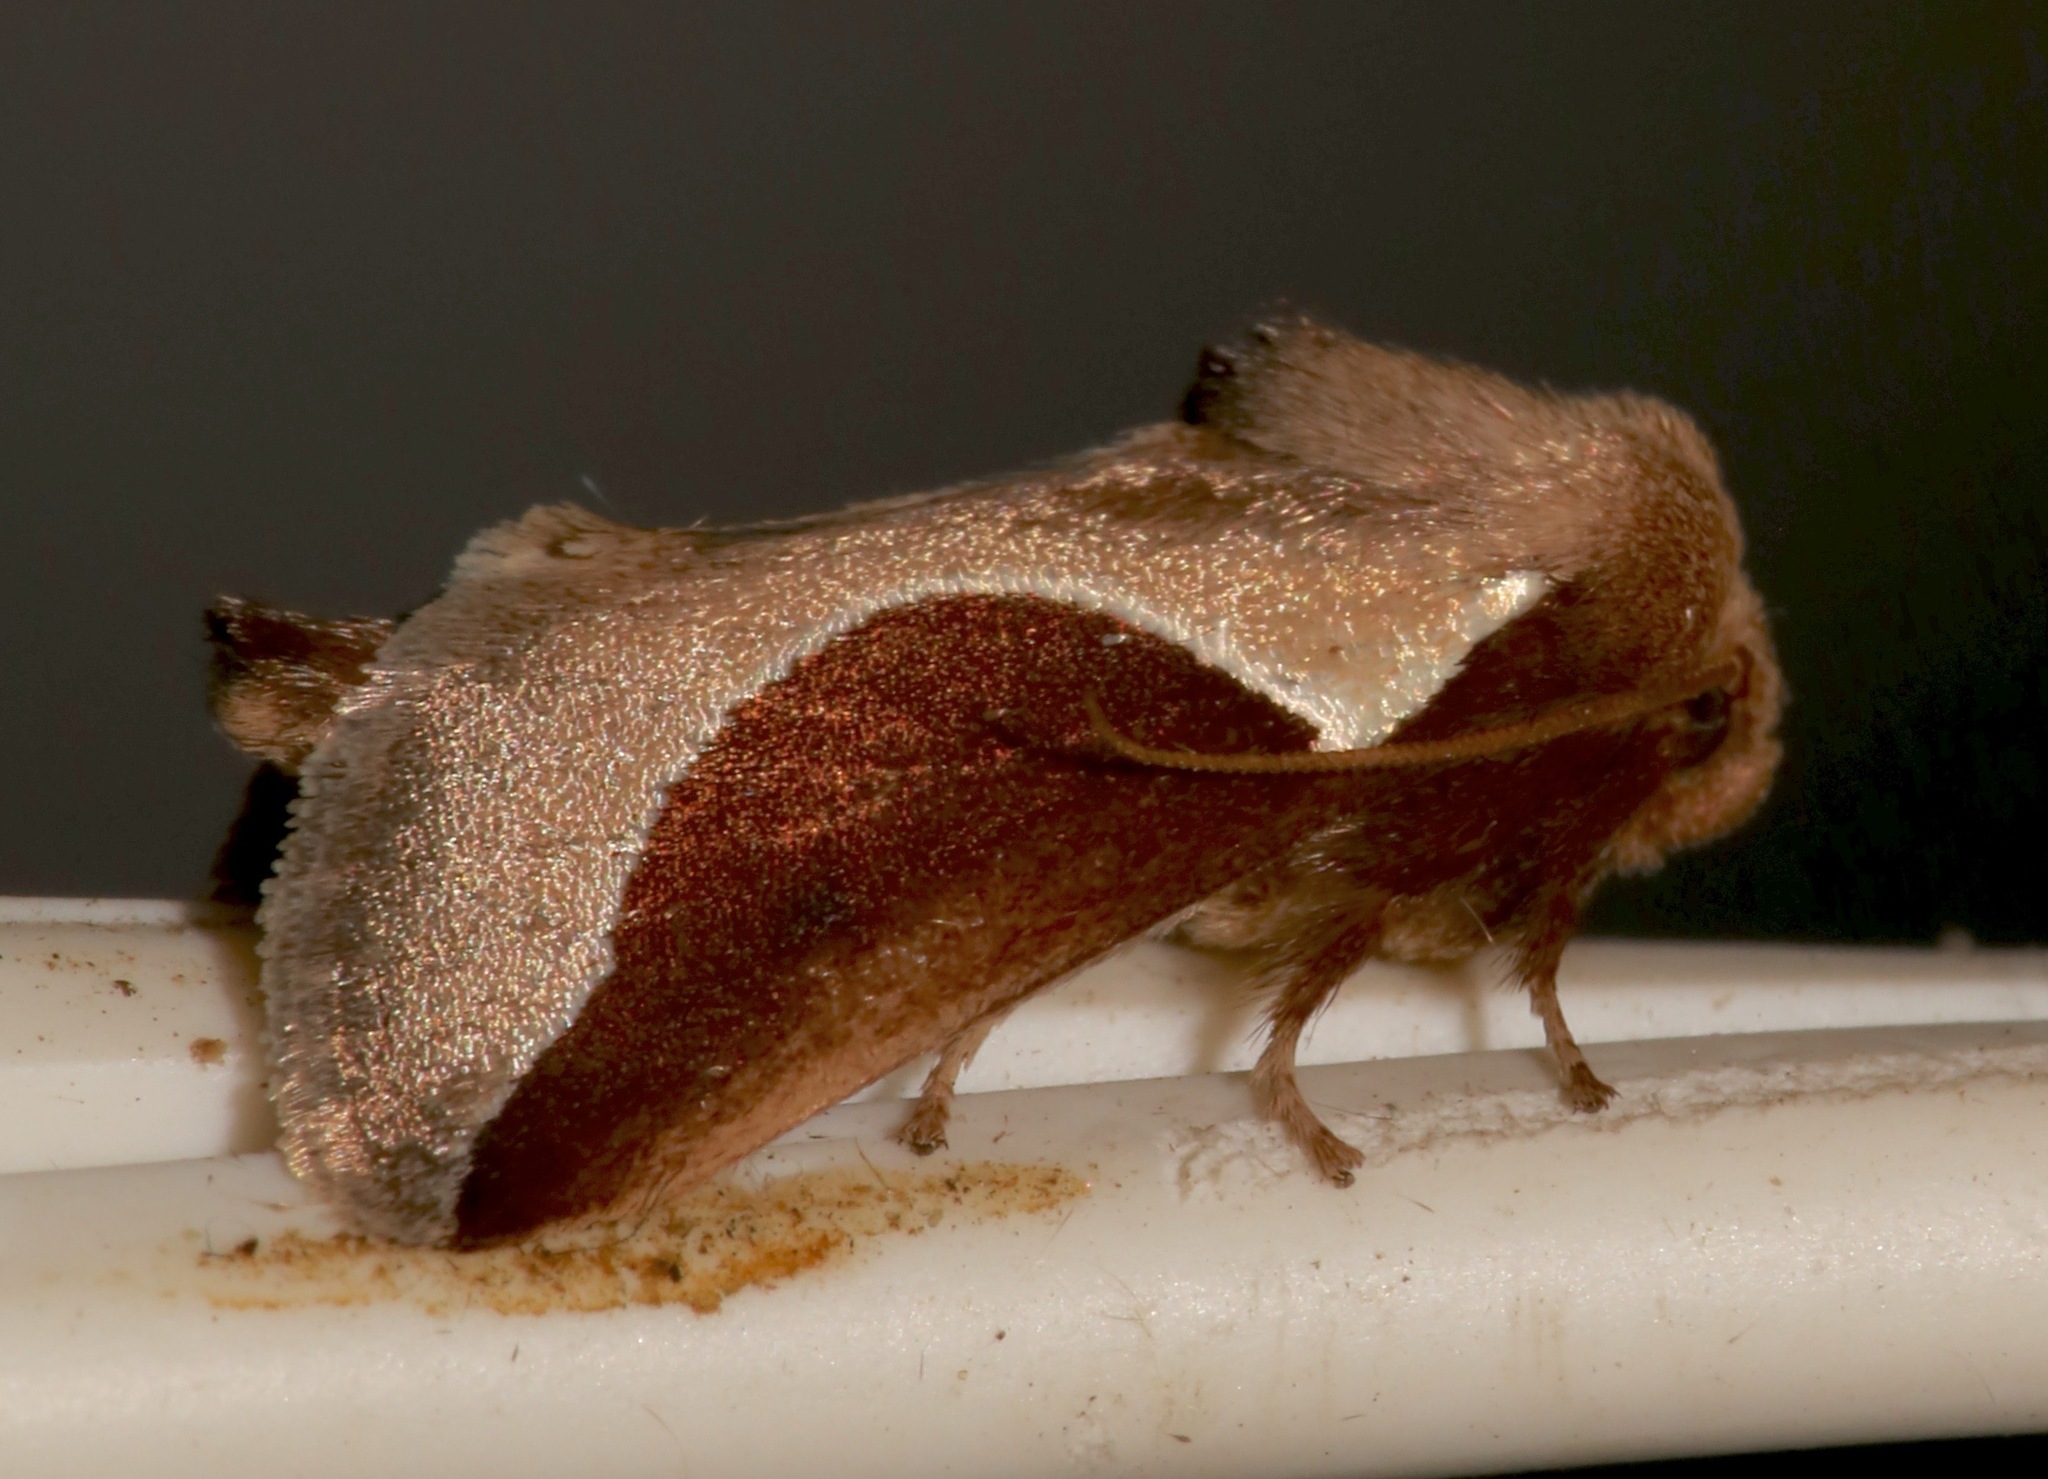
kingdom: Animalia
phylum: Arthropoda
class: Insecta
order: Lepidoptera
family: Limacodidae
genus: Prolimacodes
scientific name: Prolimacodes badia
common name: Skiff moth
